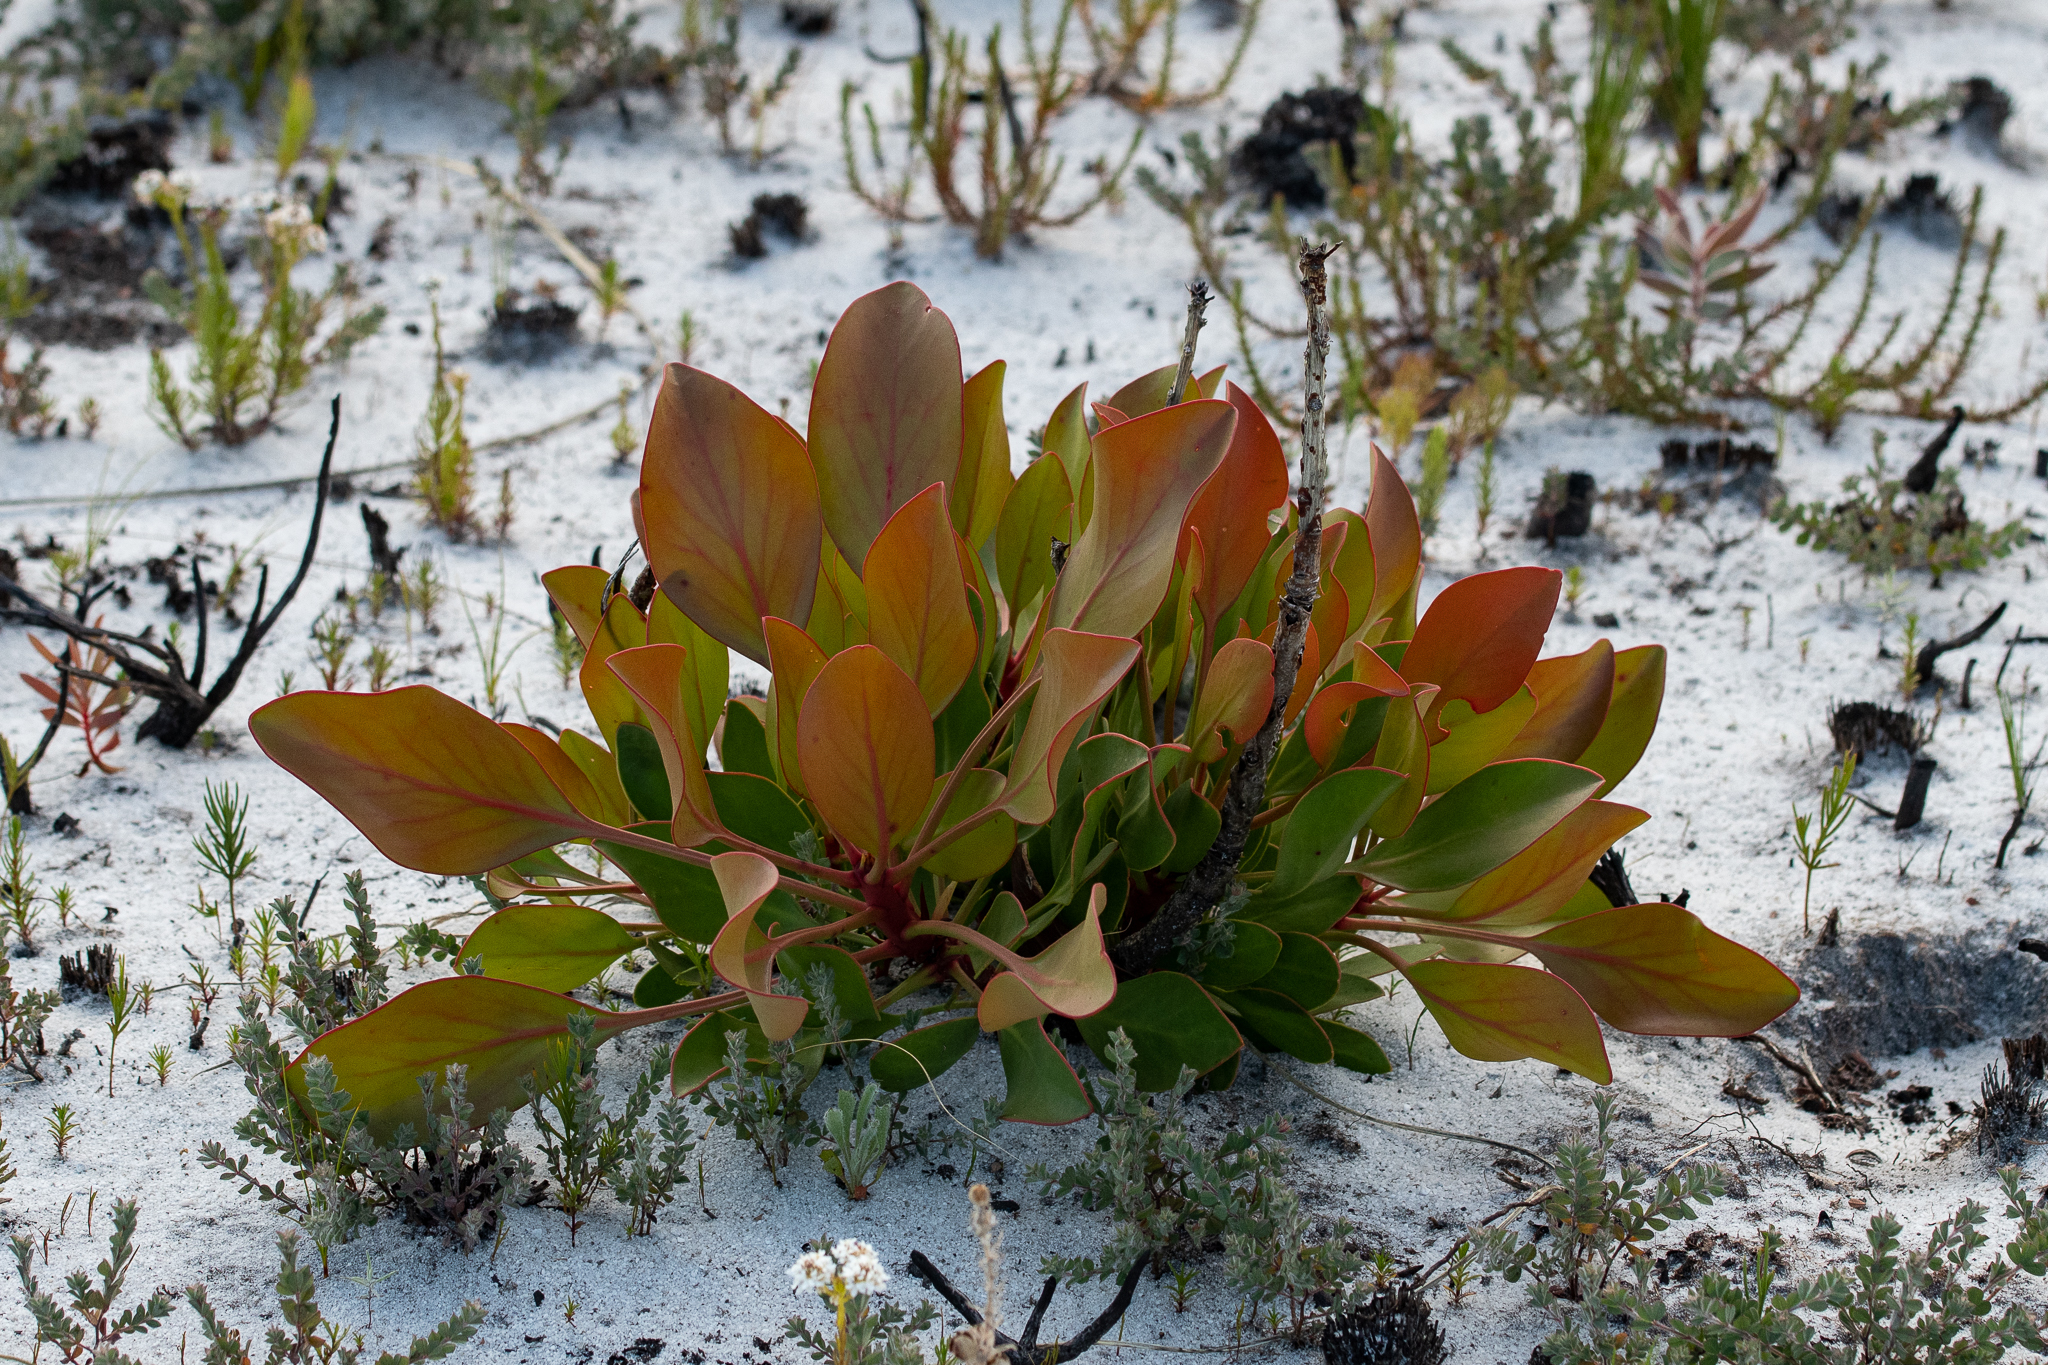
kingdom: Plantae
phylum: Tracheophyta
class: Magnoliopsida
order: Proteales
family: Proteaceae
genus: Protea
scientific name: Protea cynaroides
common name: King protea
